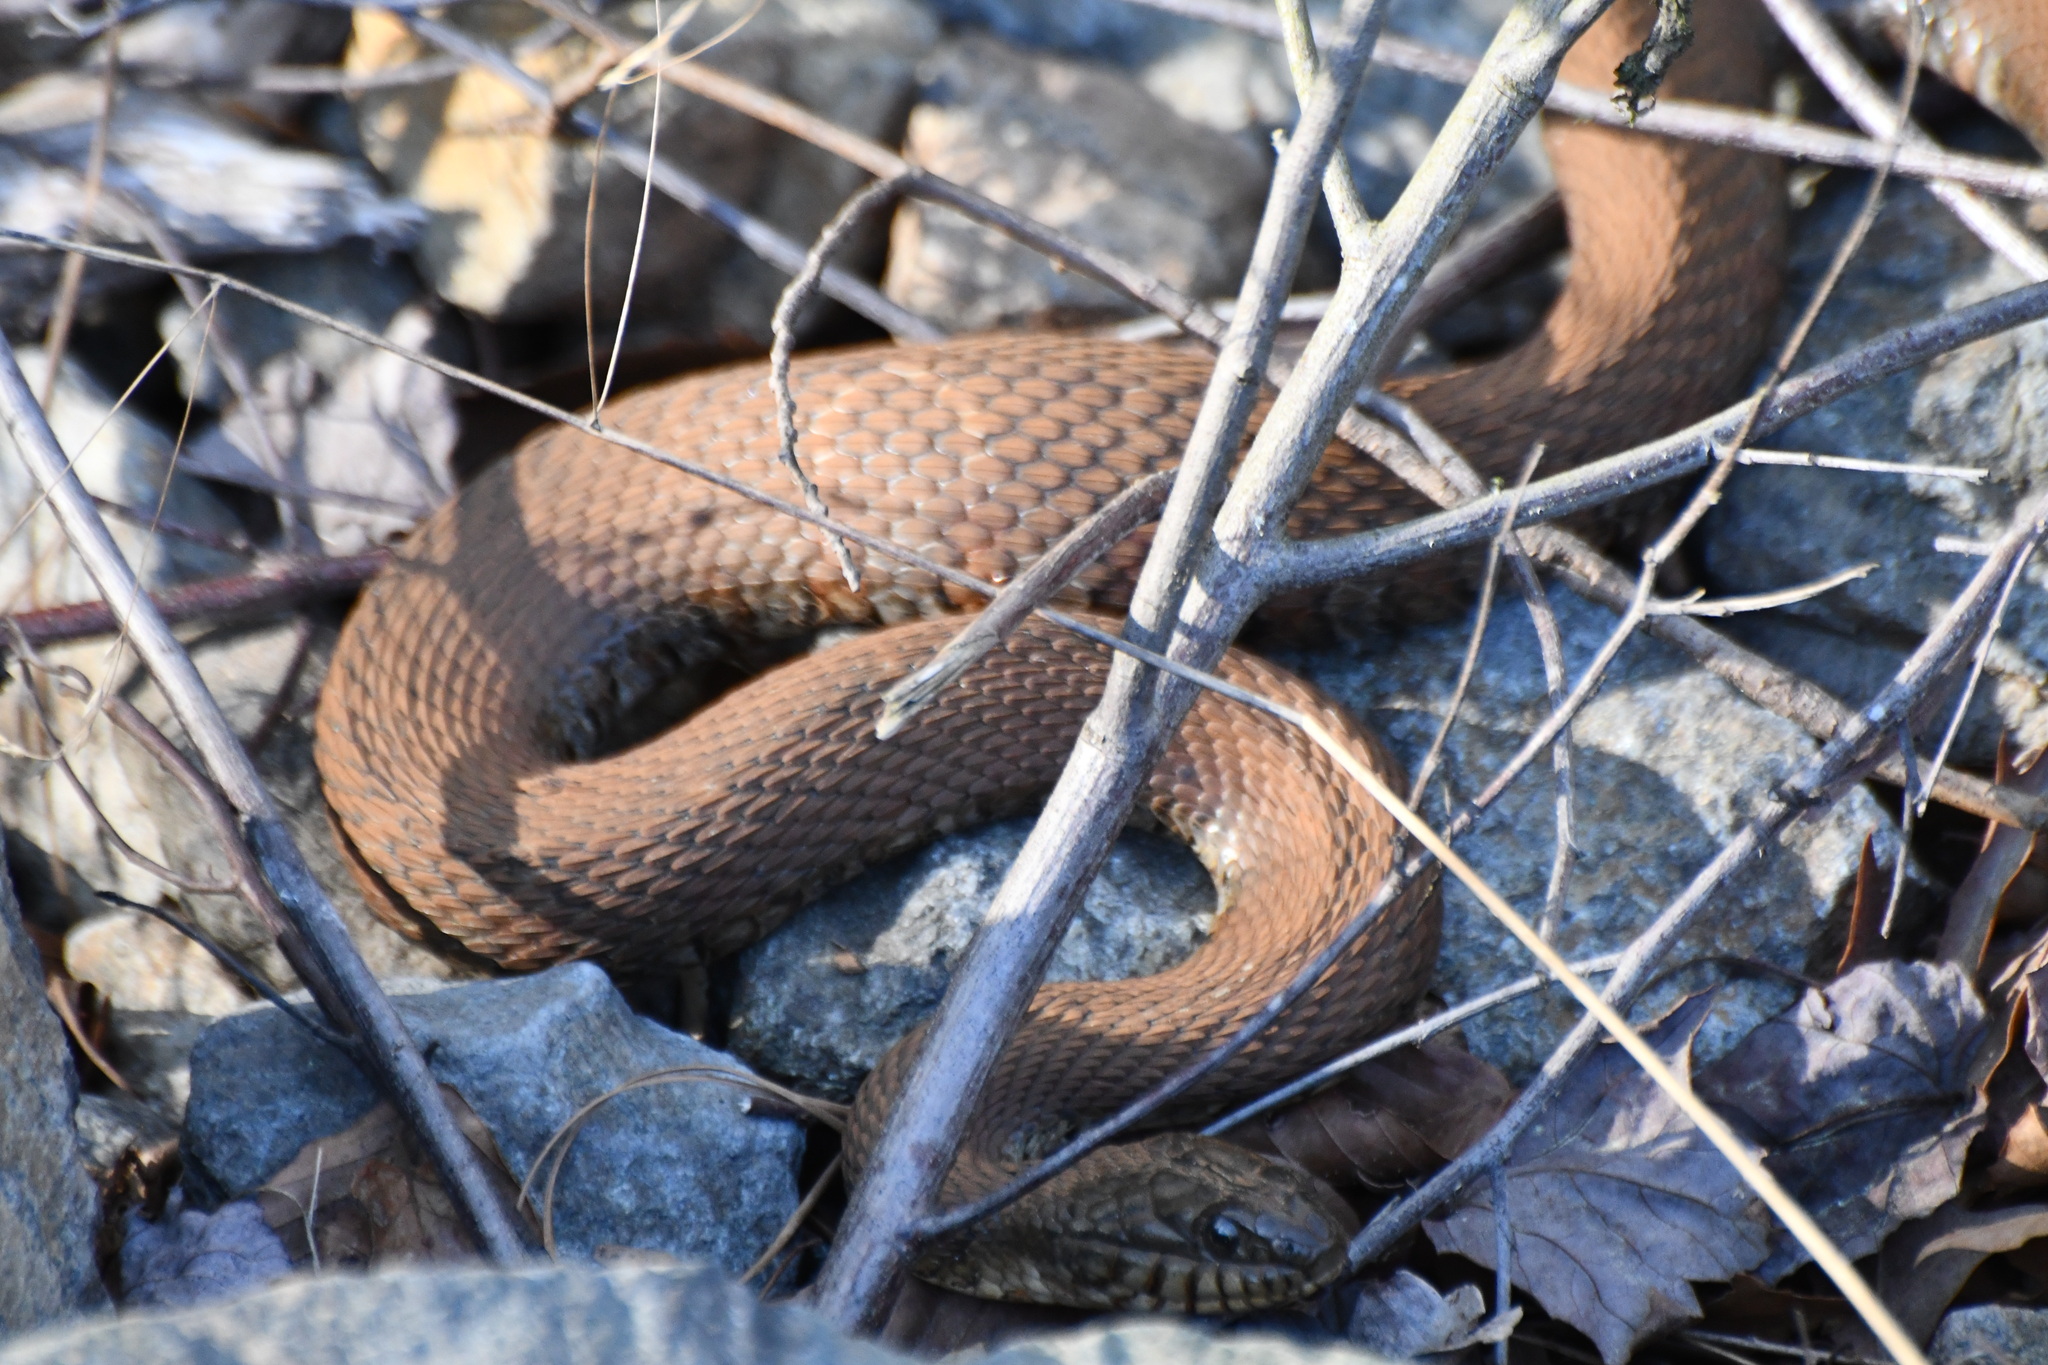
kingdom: Animalia
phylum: Chordata
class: Squamata
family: Colubridae
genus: Nerodia
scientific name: Nerodia sipedon
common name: Northern water snake
